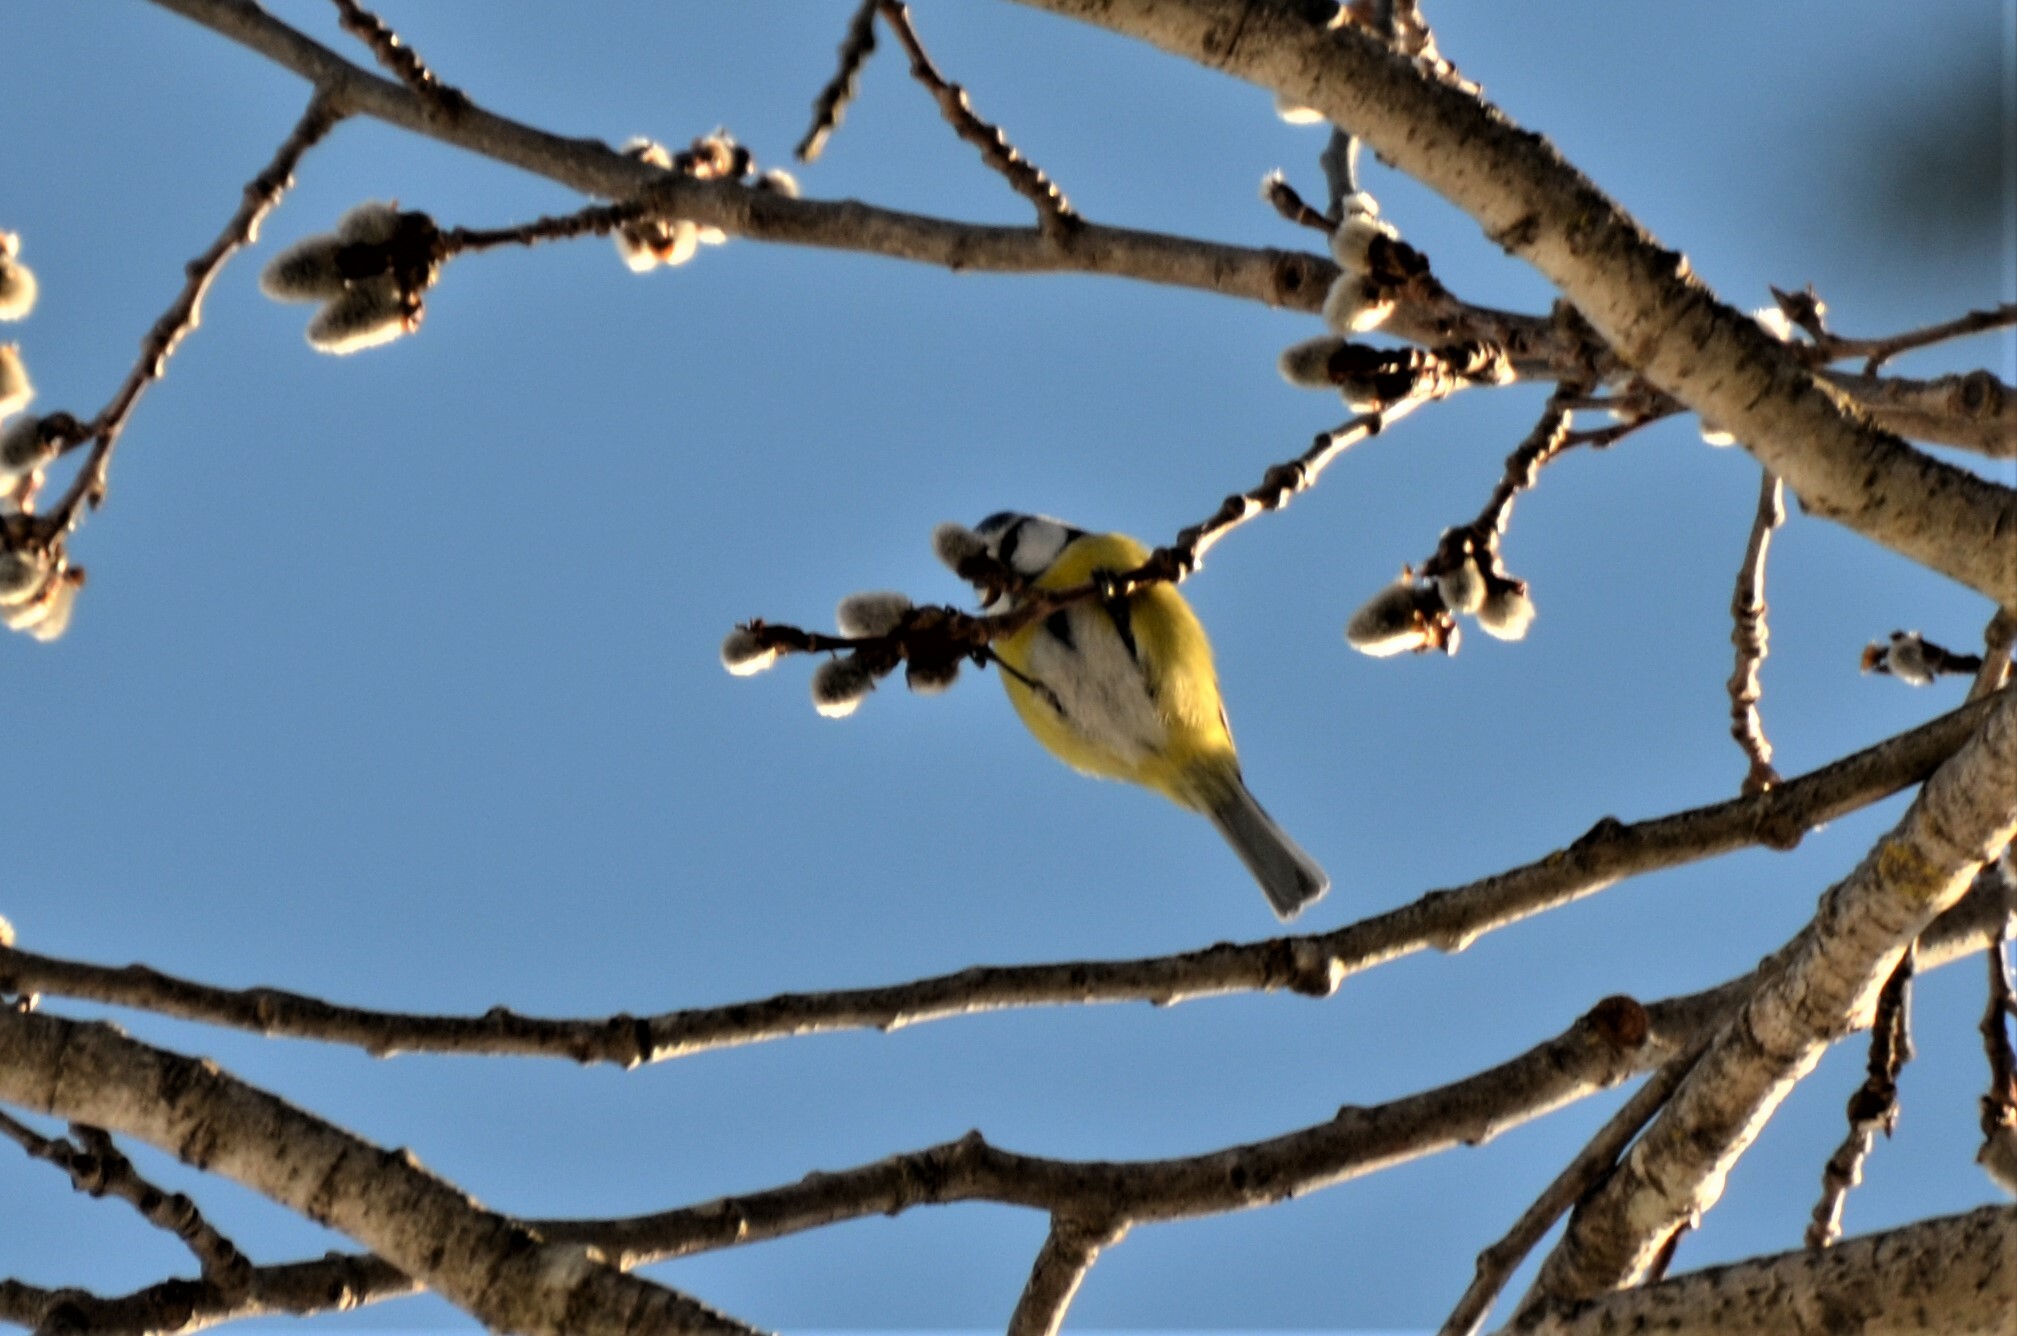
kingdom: Animalia
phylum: Chordata
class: Aves
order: Passeriformes
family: Paridae
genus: Cyanistes
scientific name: Cyanistes caeruleus
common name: Eurasian blue tit
